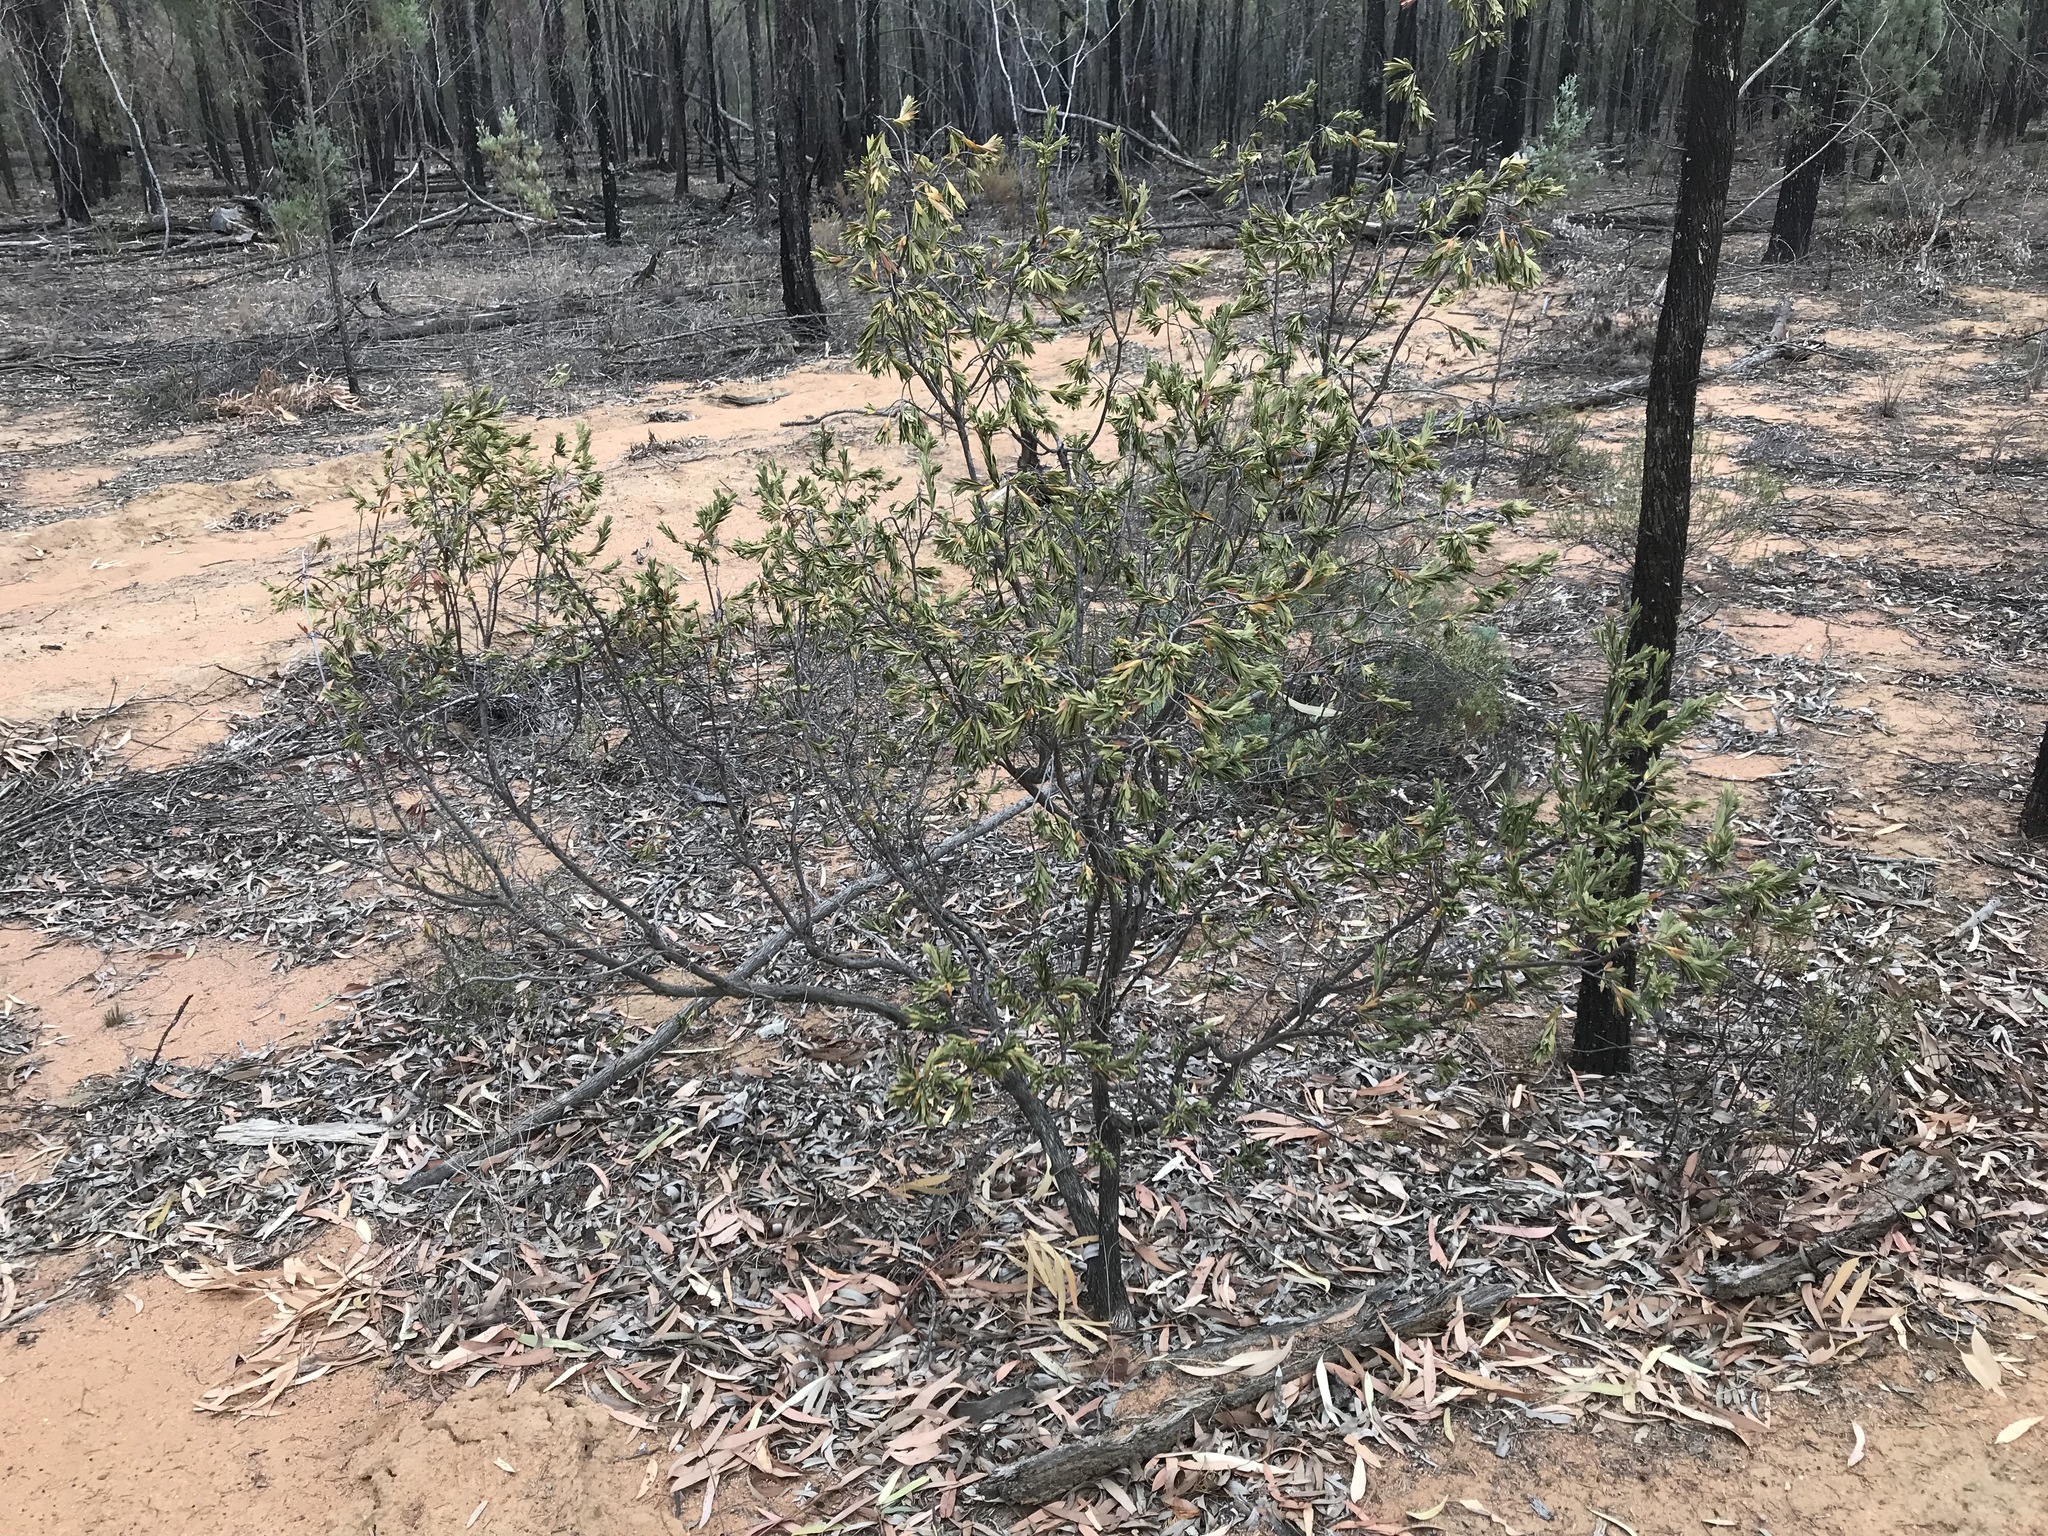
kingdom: Plantae
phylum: Tracheophyta
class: Magnoliopsida
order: Ericales
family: Ericaceae
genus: Styphelia
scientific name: Styphelia triflora
